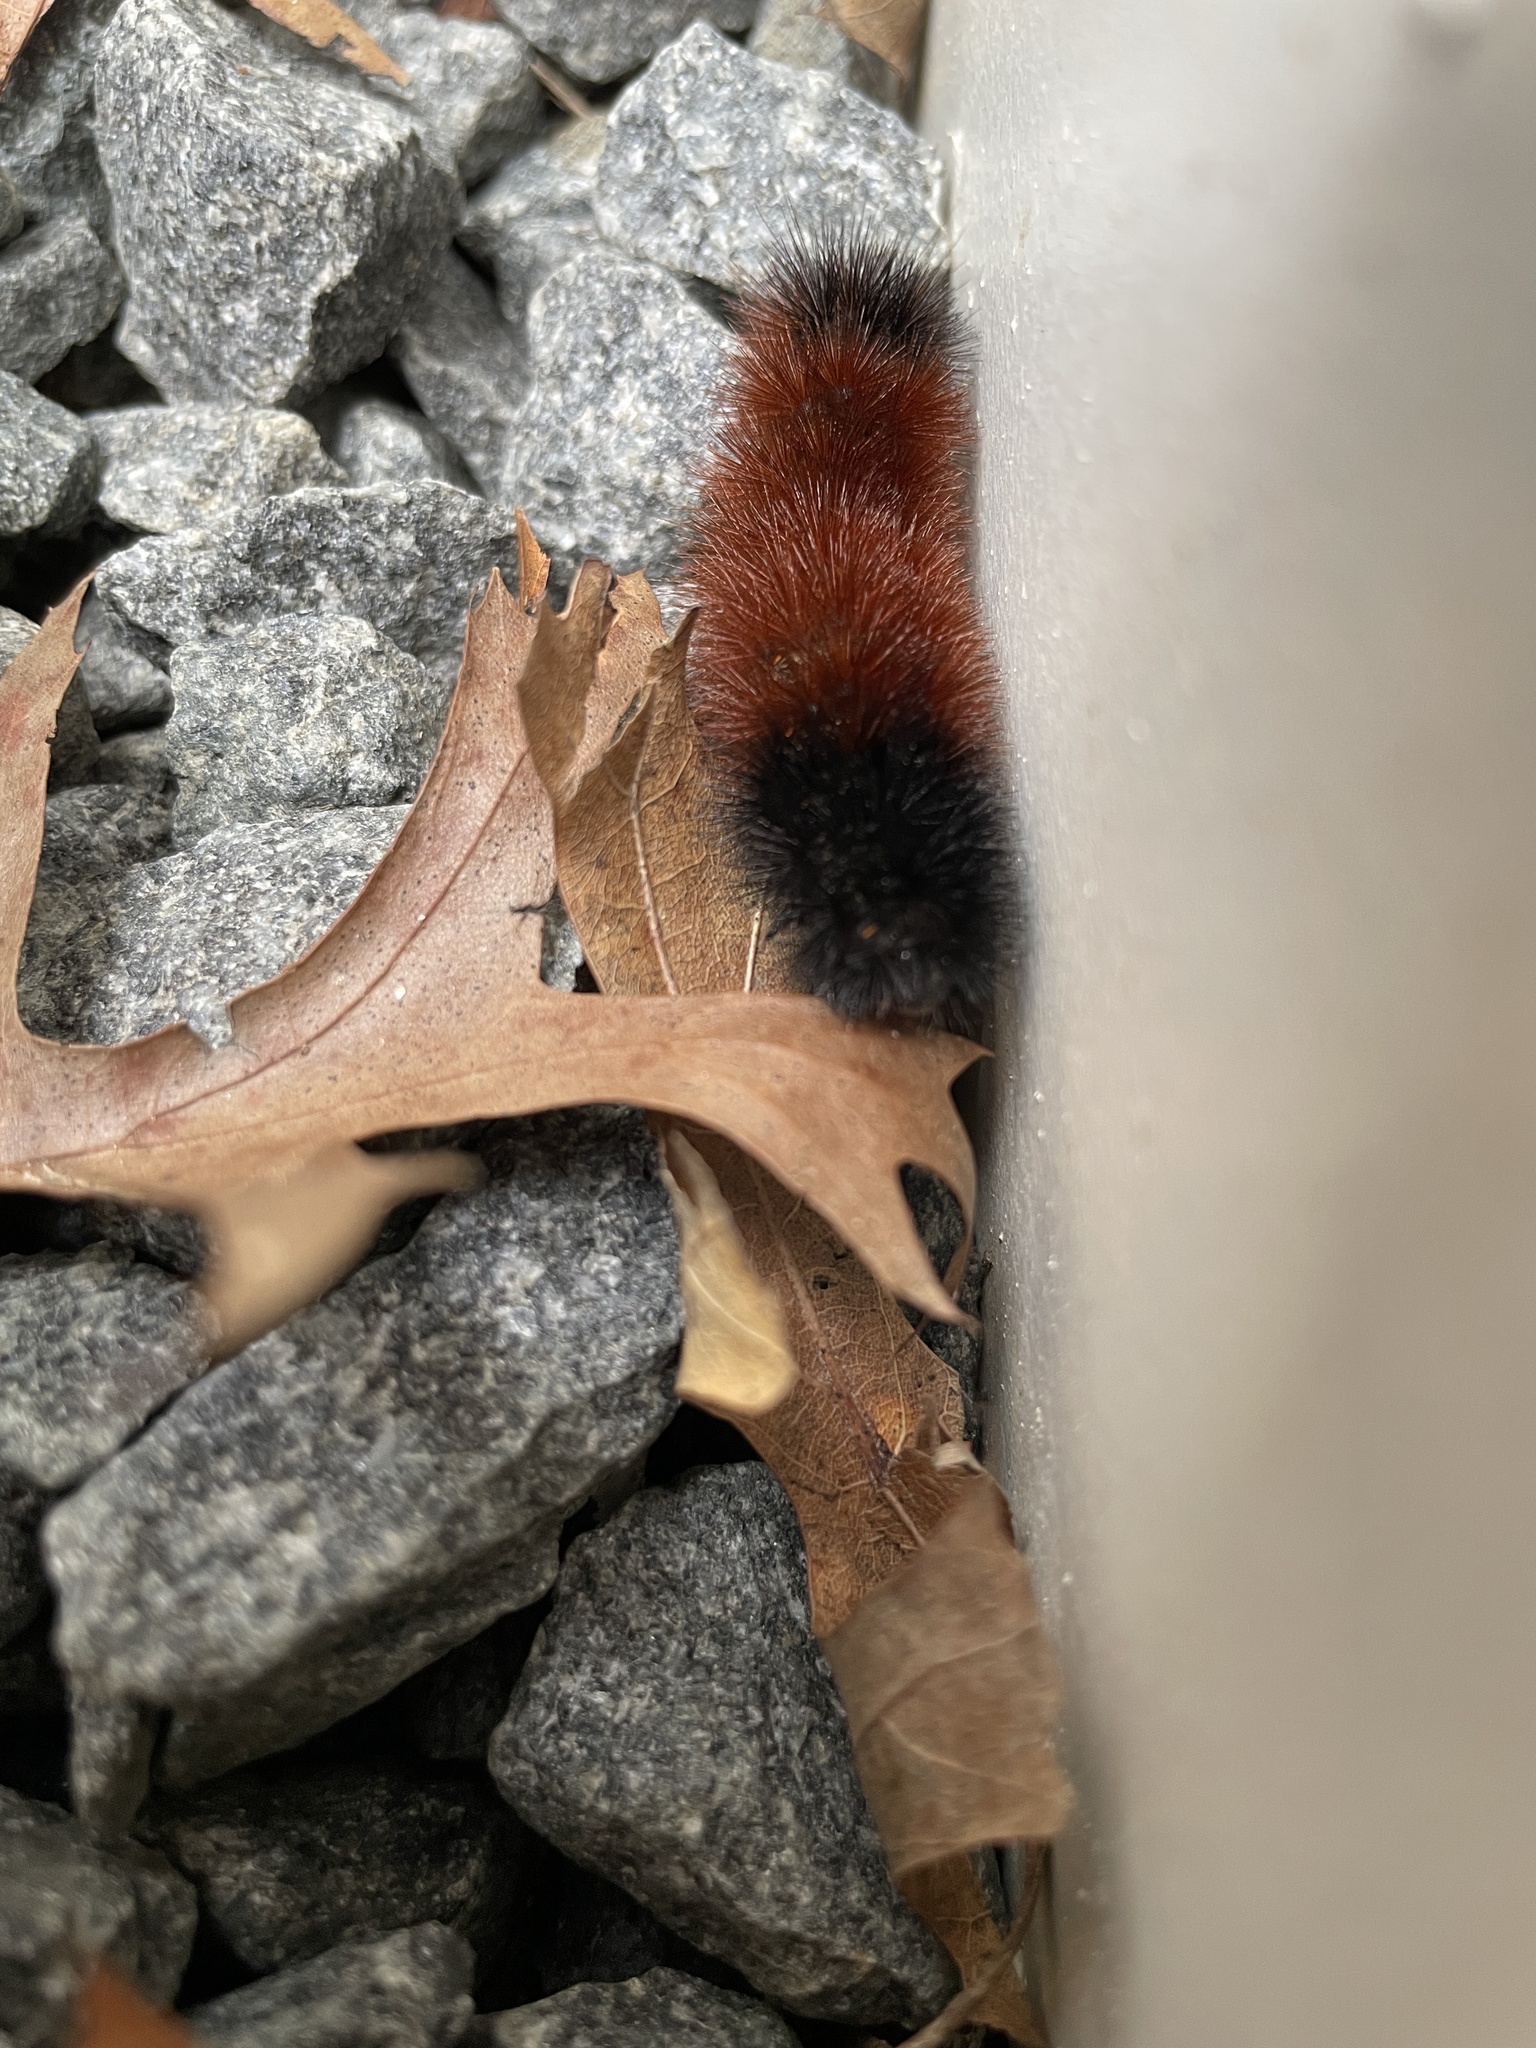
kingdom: Animalia
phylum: Arthropoda
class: Insecta
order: Lepidoptera
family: Erebidae
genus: Pyrrharctia
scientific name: Pyrrharctia isabella
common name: Isabella tiger moth
